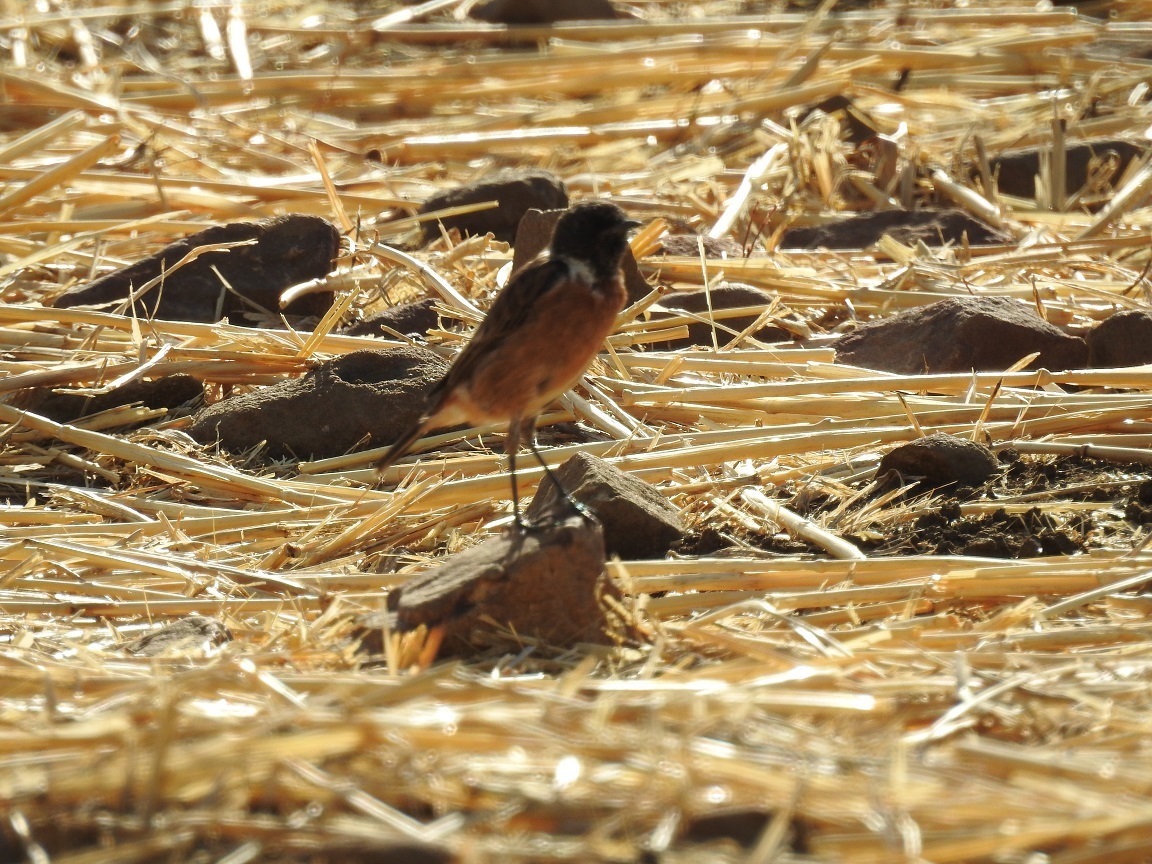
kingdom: Animalia
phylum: Chordata
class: Aves
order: Passeriformes
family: Muscicapidae
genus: Saxicola
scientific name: Saxicola rubicola
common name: European stonechat
